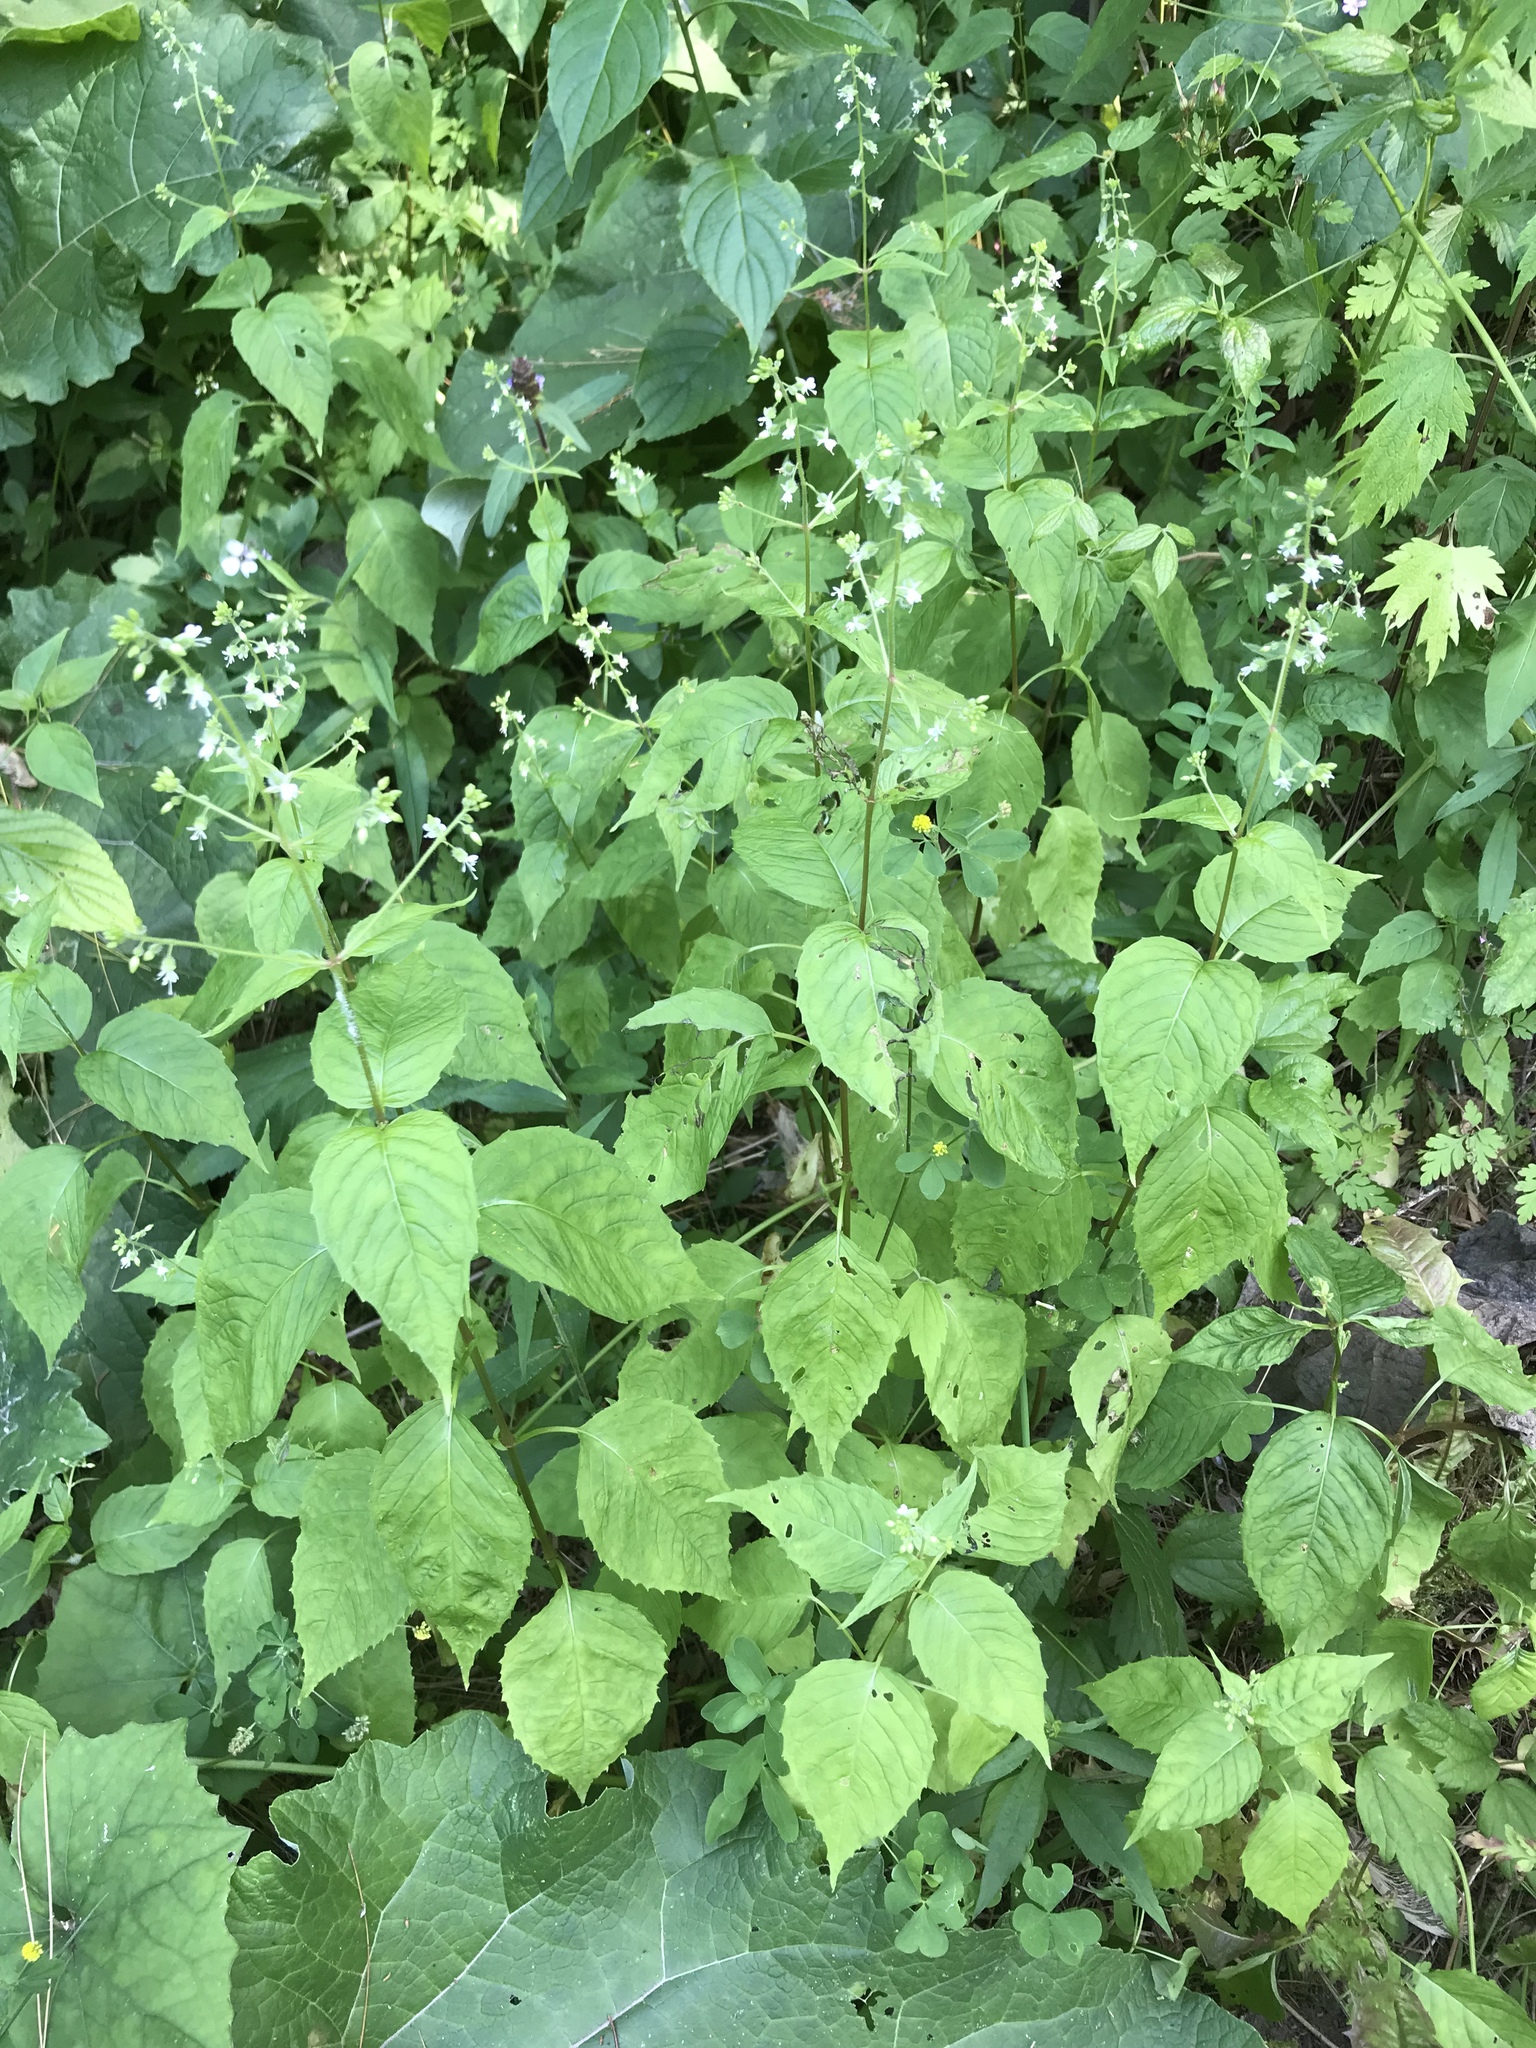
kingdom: Plantae
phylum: Tracheophyta
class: Magnoliopsida
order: Myrtales
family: Onagraceae
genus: Circaea
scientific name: Circaea canadensis
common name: Broad-leaved enchanter's nightshade
